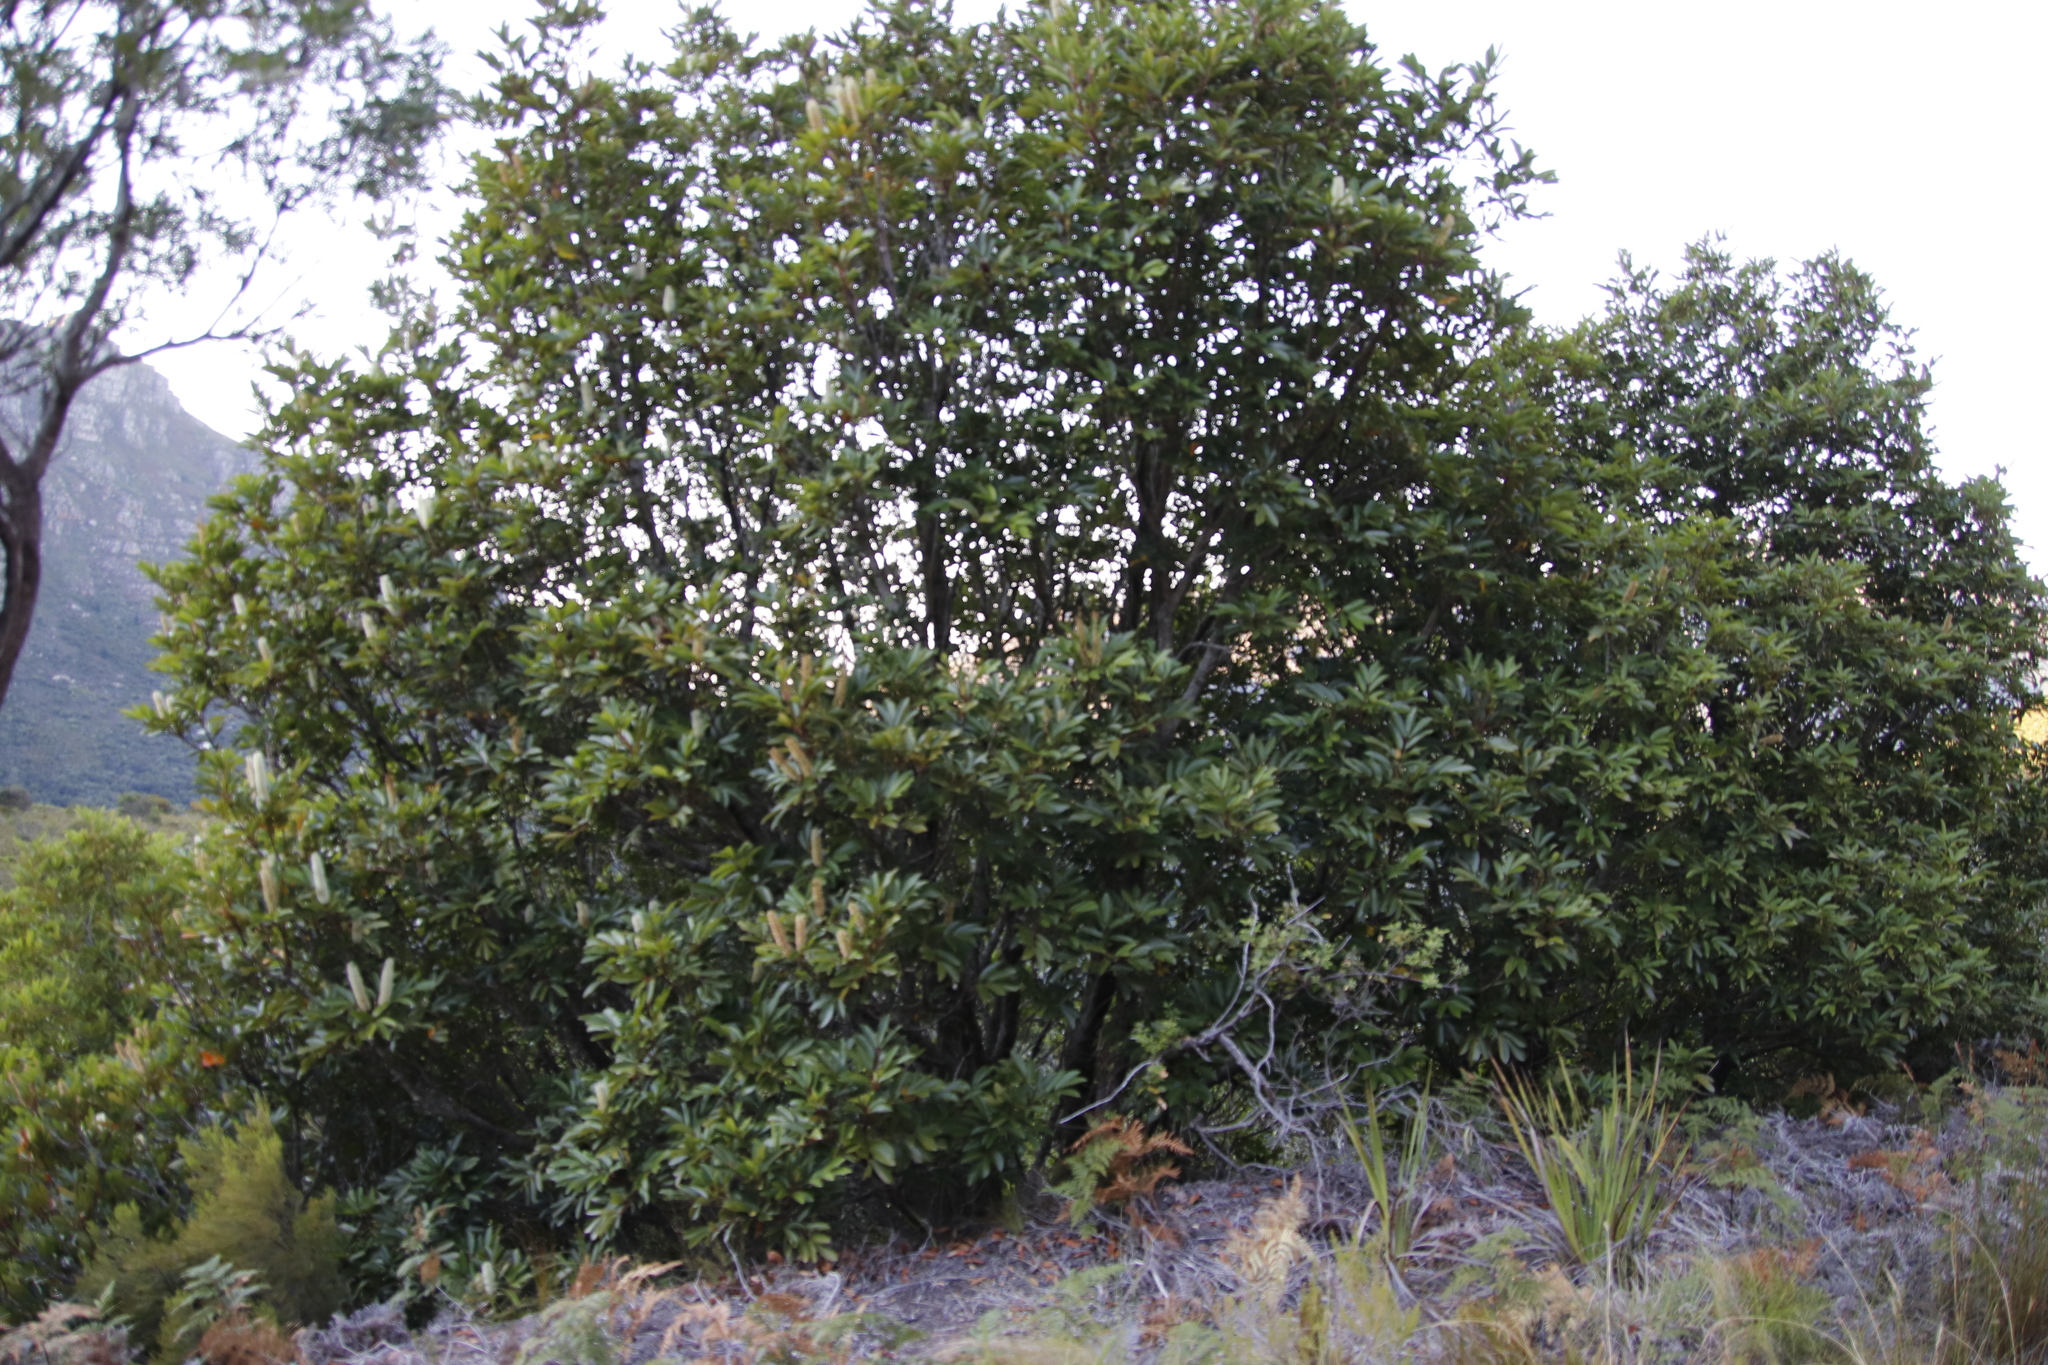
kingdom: Plantae
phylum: Tracheophyta
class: Magnoliopsida
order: Oxalidales
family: Cunoniaceae
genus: Cunonia
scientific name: Cunonia capensis
